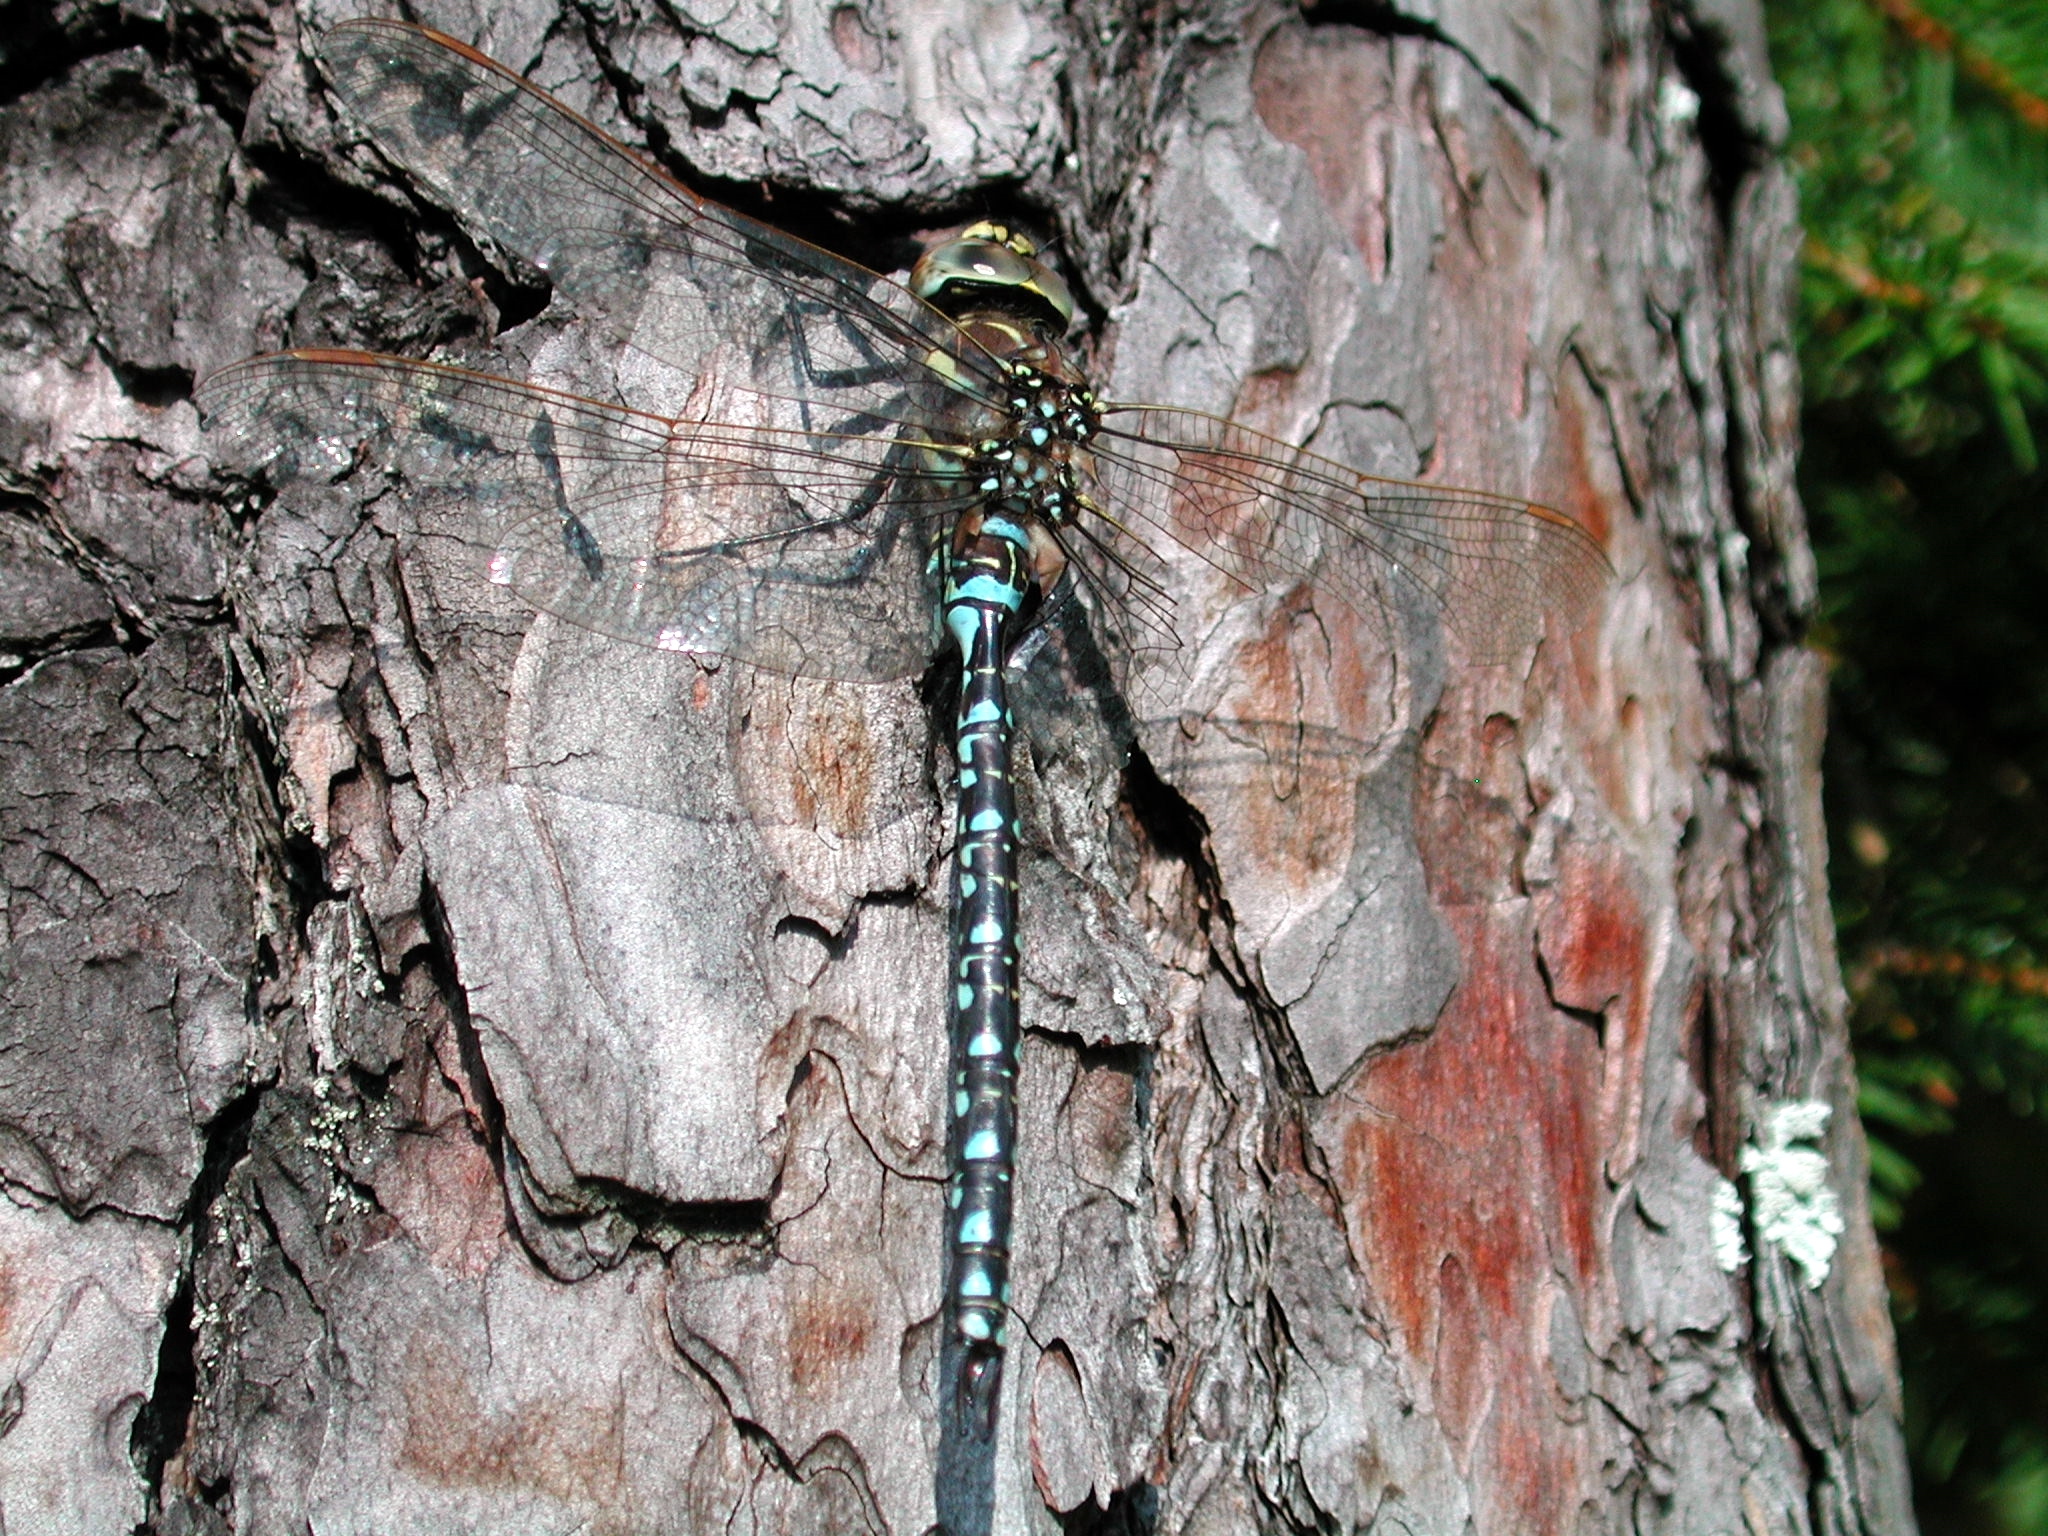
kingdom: Animalia
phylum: Arthropoda
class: Insecta
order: Odonata
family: Aeshnidae
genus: Aeshna
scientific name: Aeshna juncea
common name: Moorland hawker
